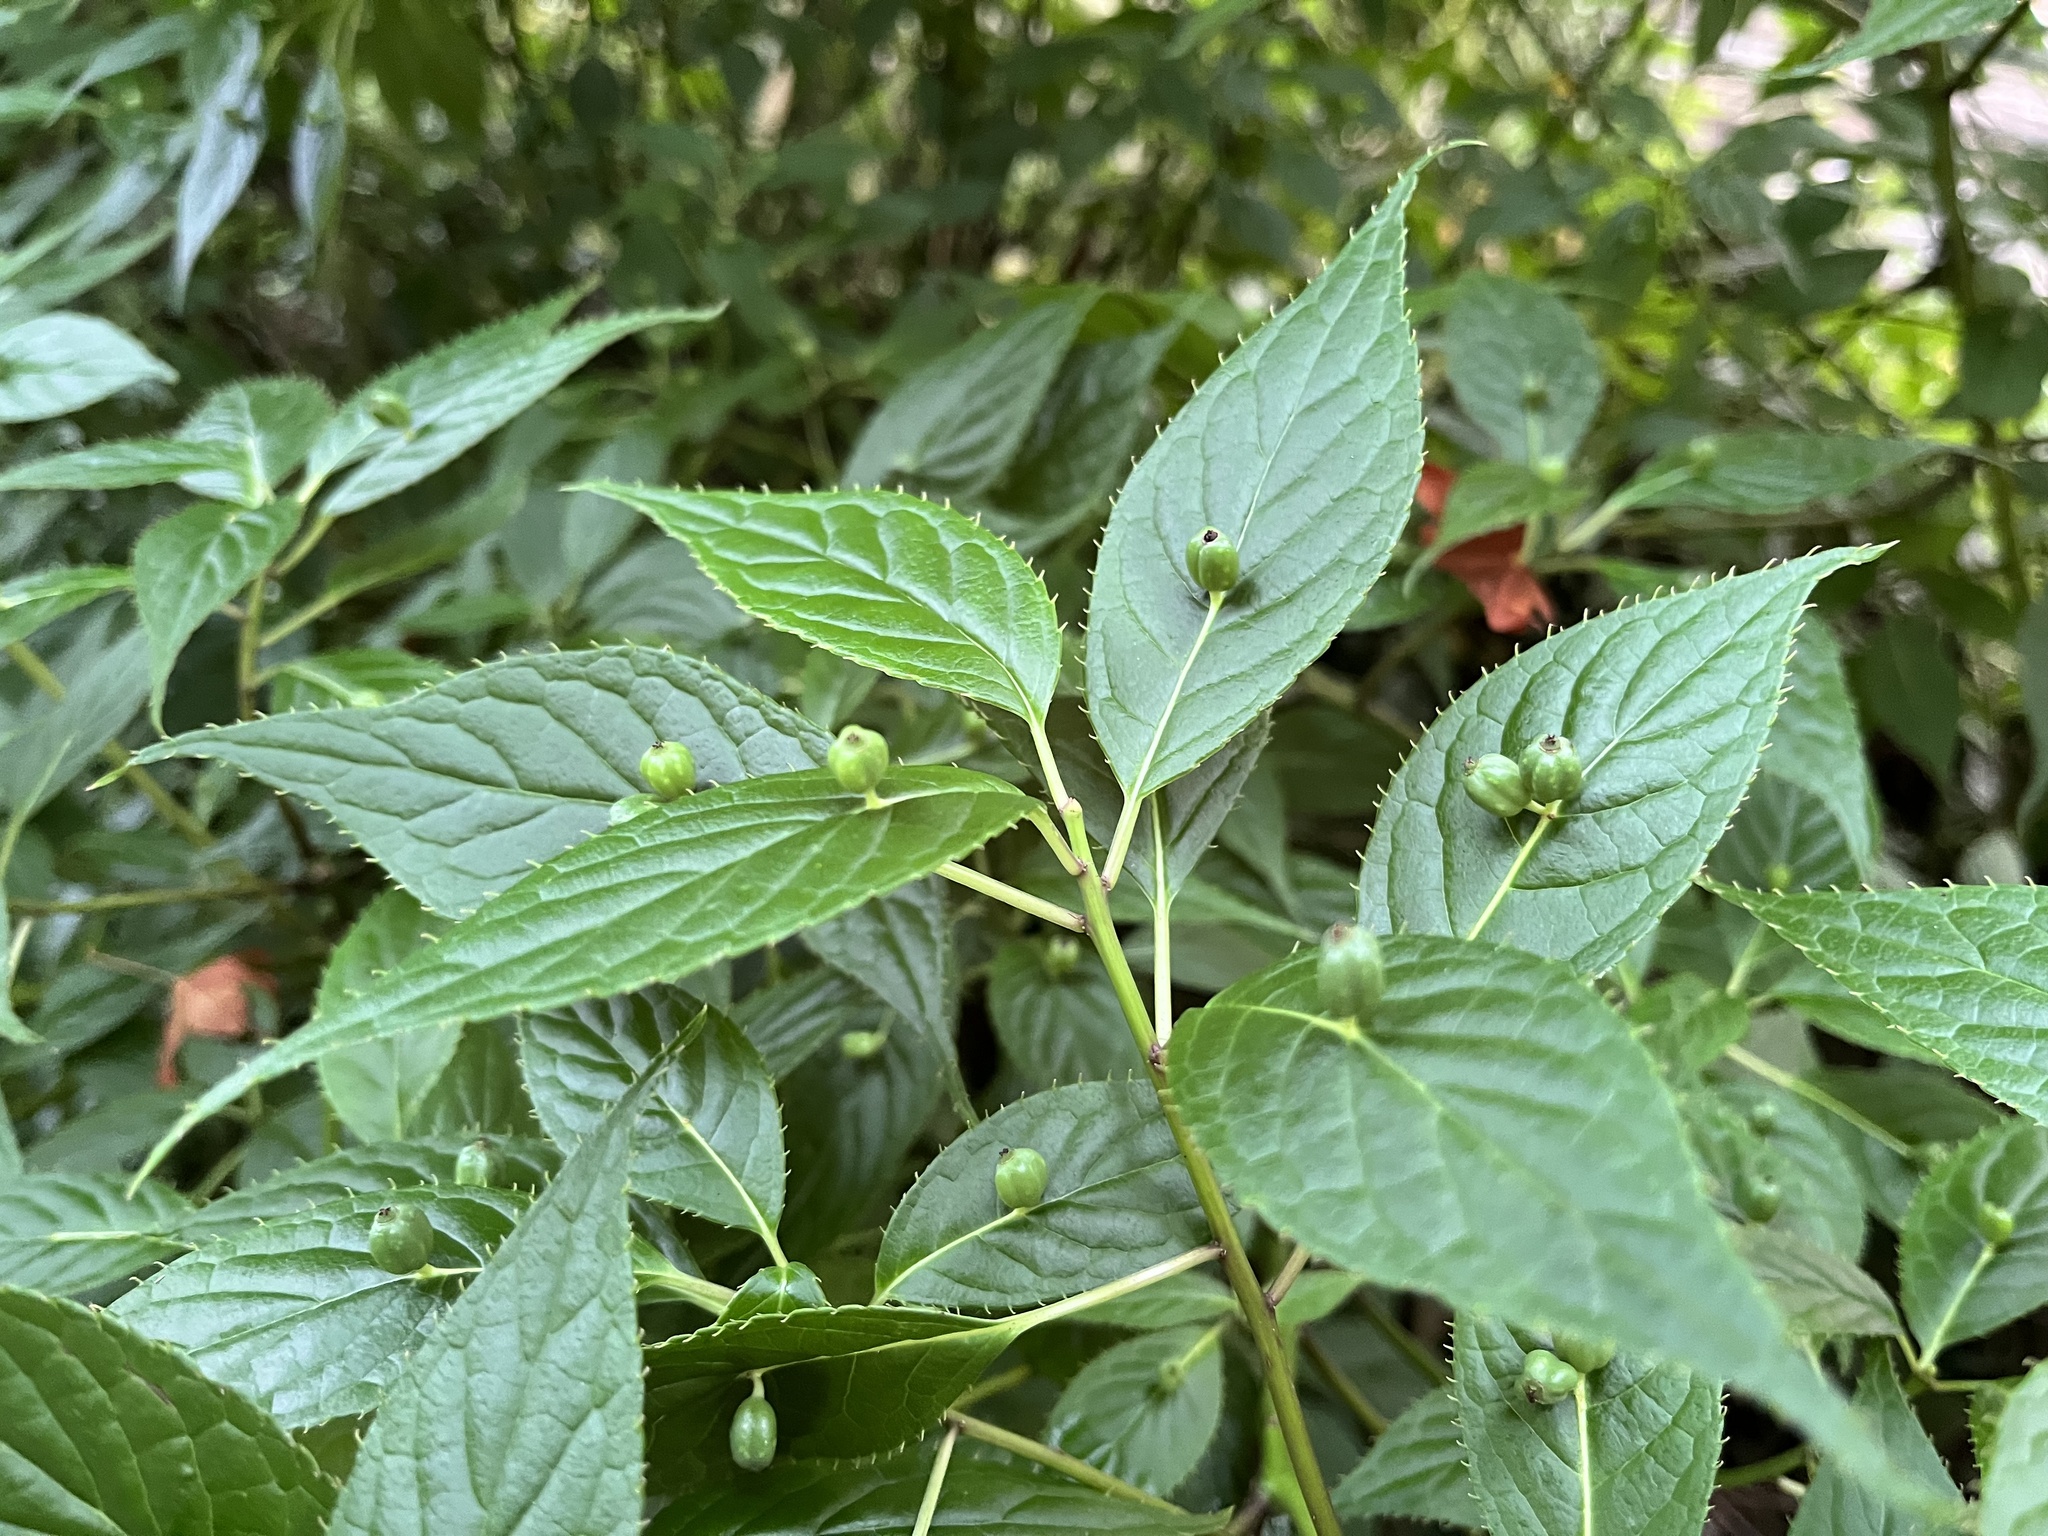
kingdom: Plantae
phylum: Tracheophyta
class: Magnoliopsida
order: Aquifoliales
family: Helwingiaceae
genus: Helwingia
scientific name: Helwingia japonica
